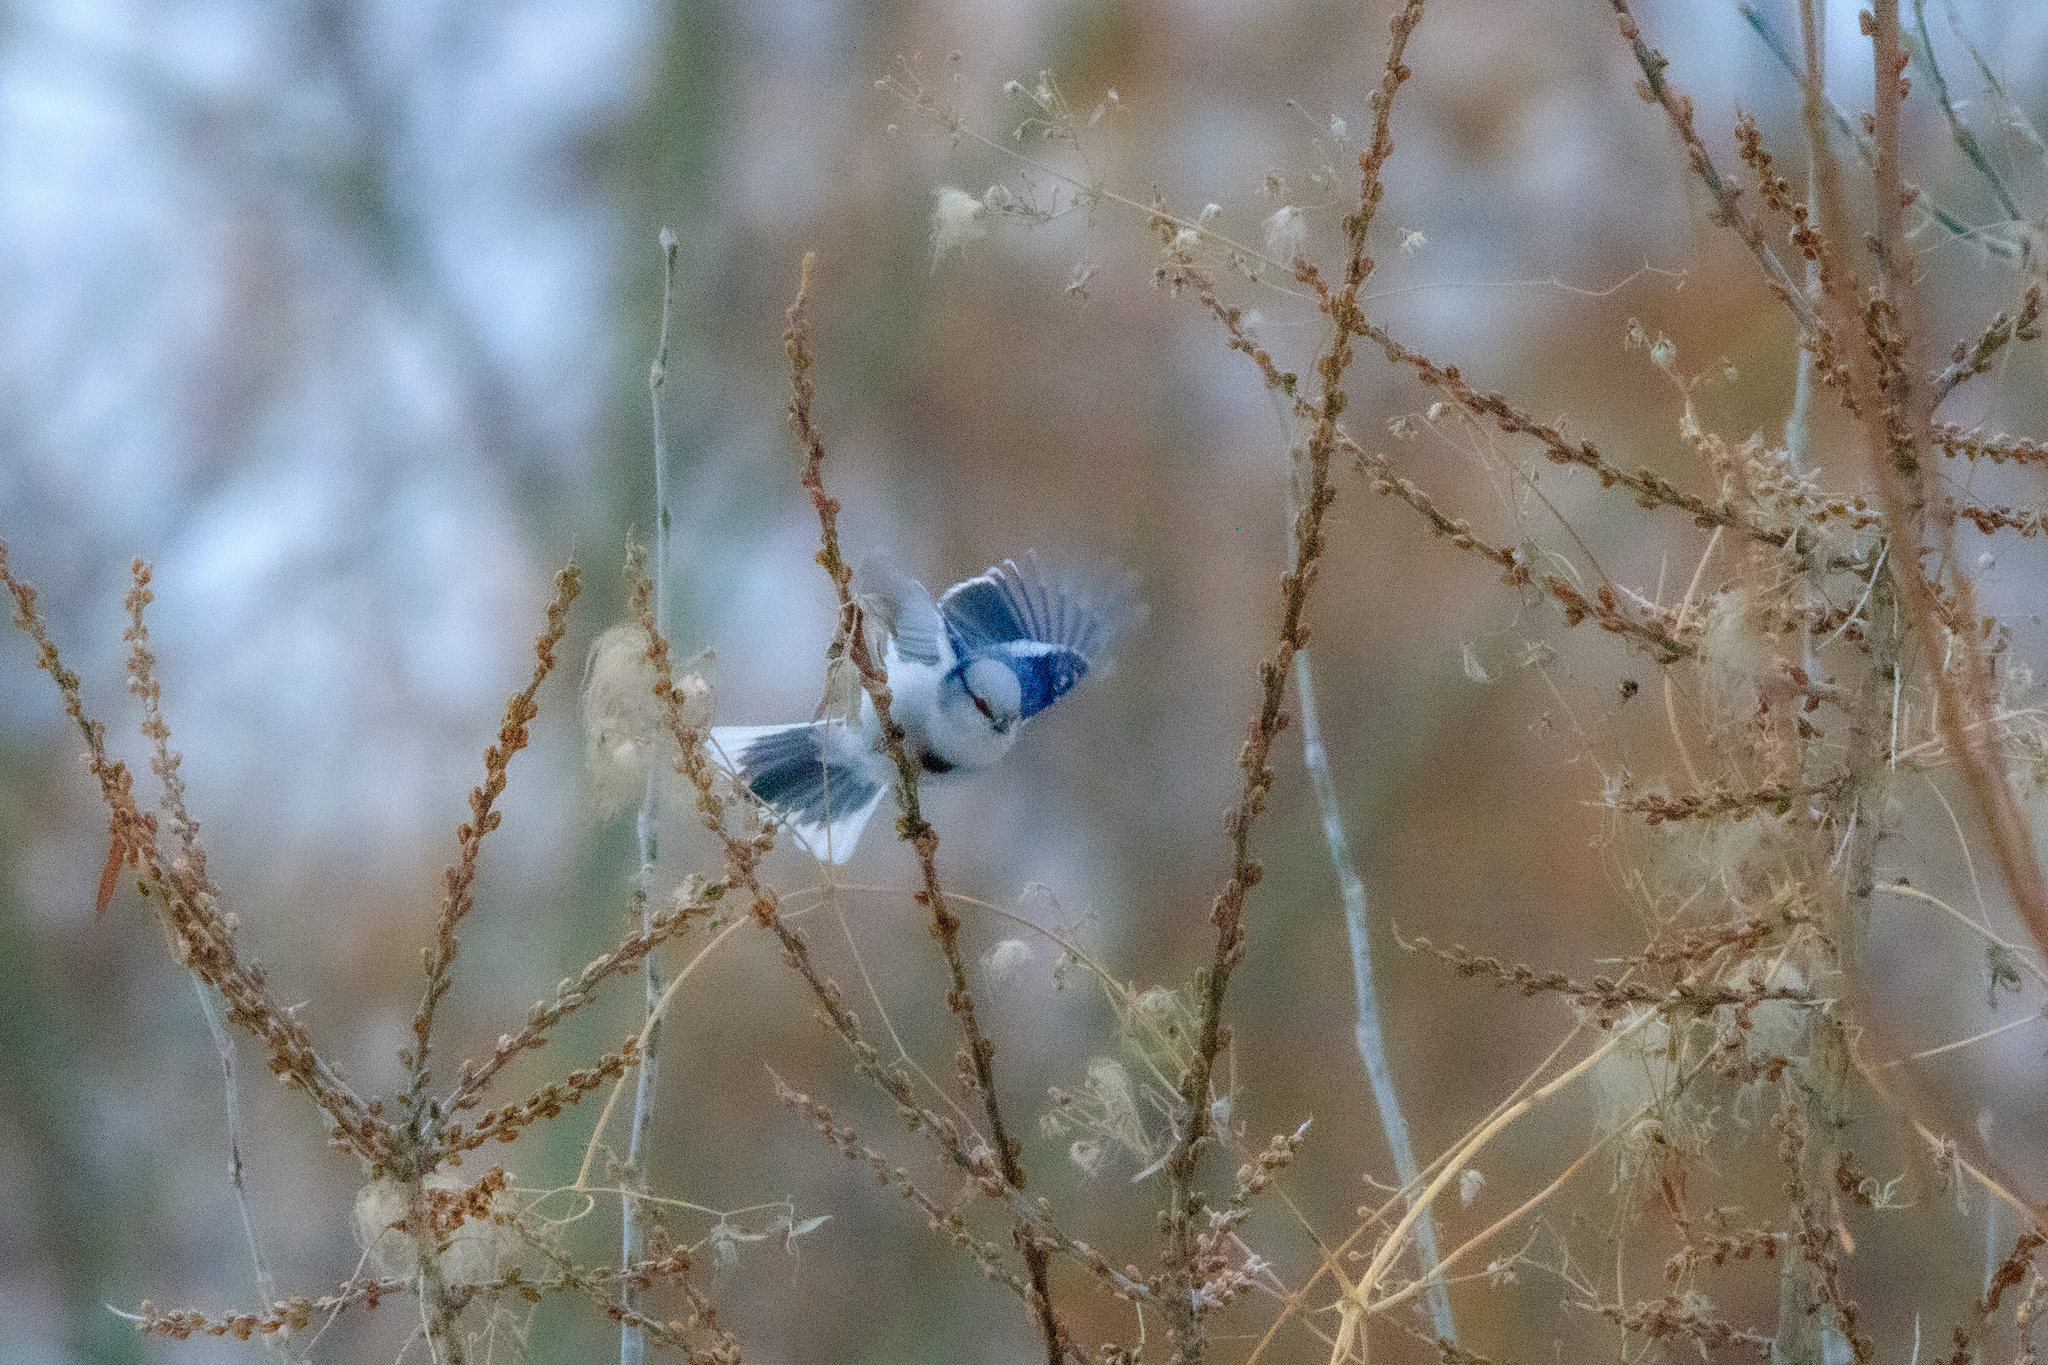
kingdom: Animalia
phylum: Chordata
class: Aves
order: Passeriformes
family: Paridae
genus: Cyanistes
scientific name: Cyanistes cyanus
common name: Azure tit
